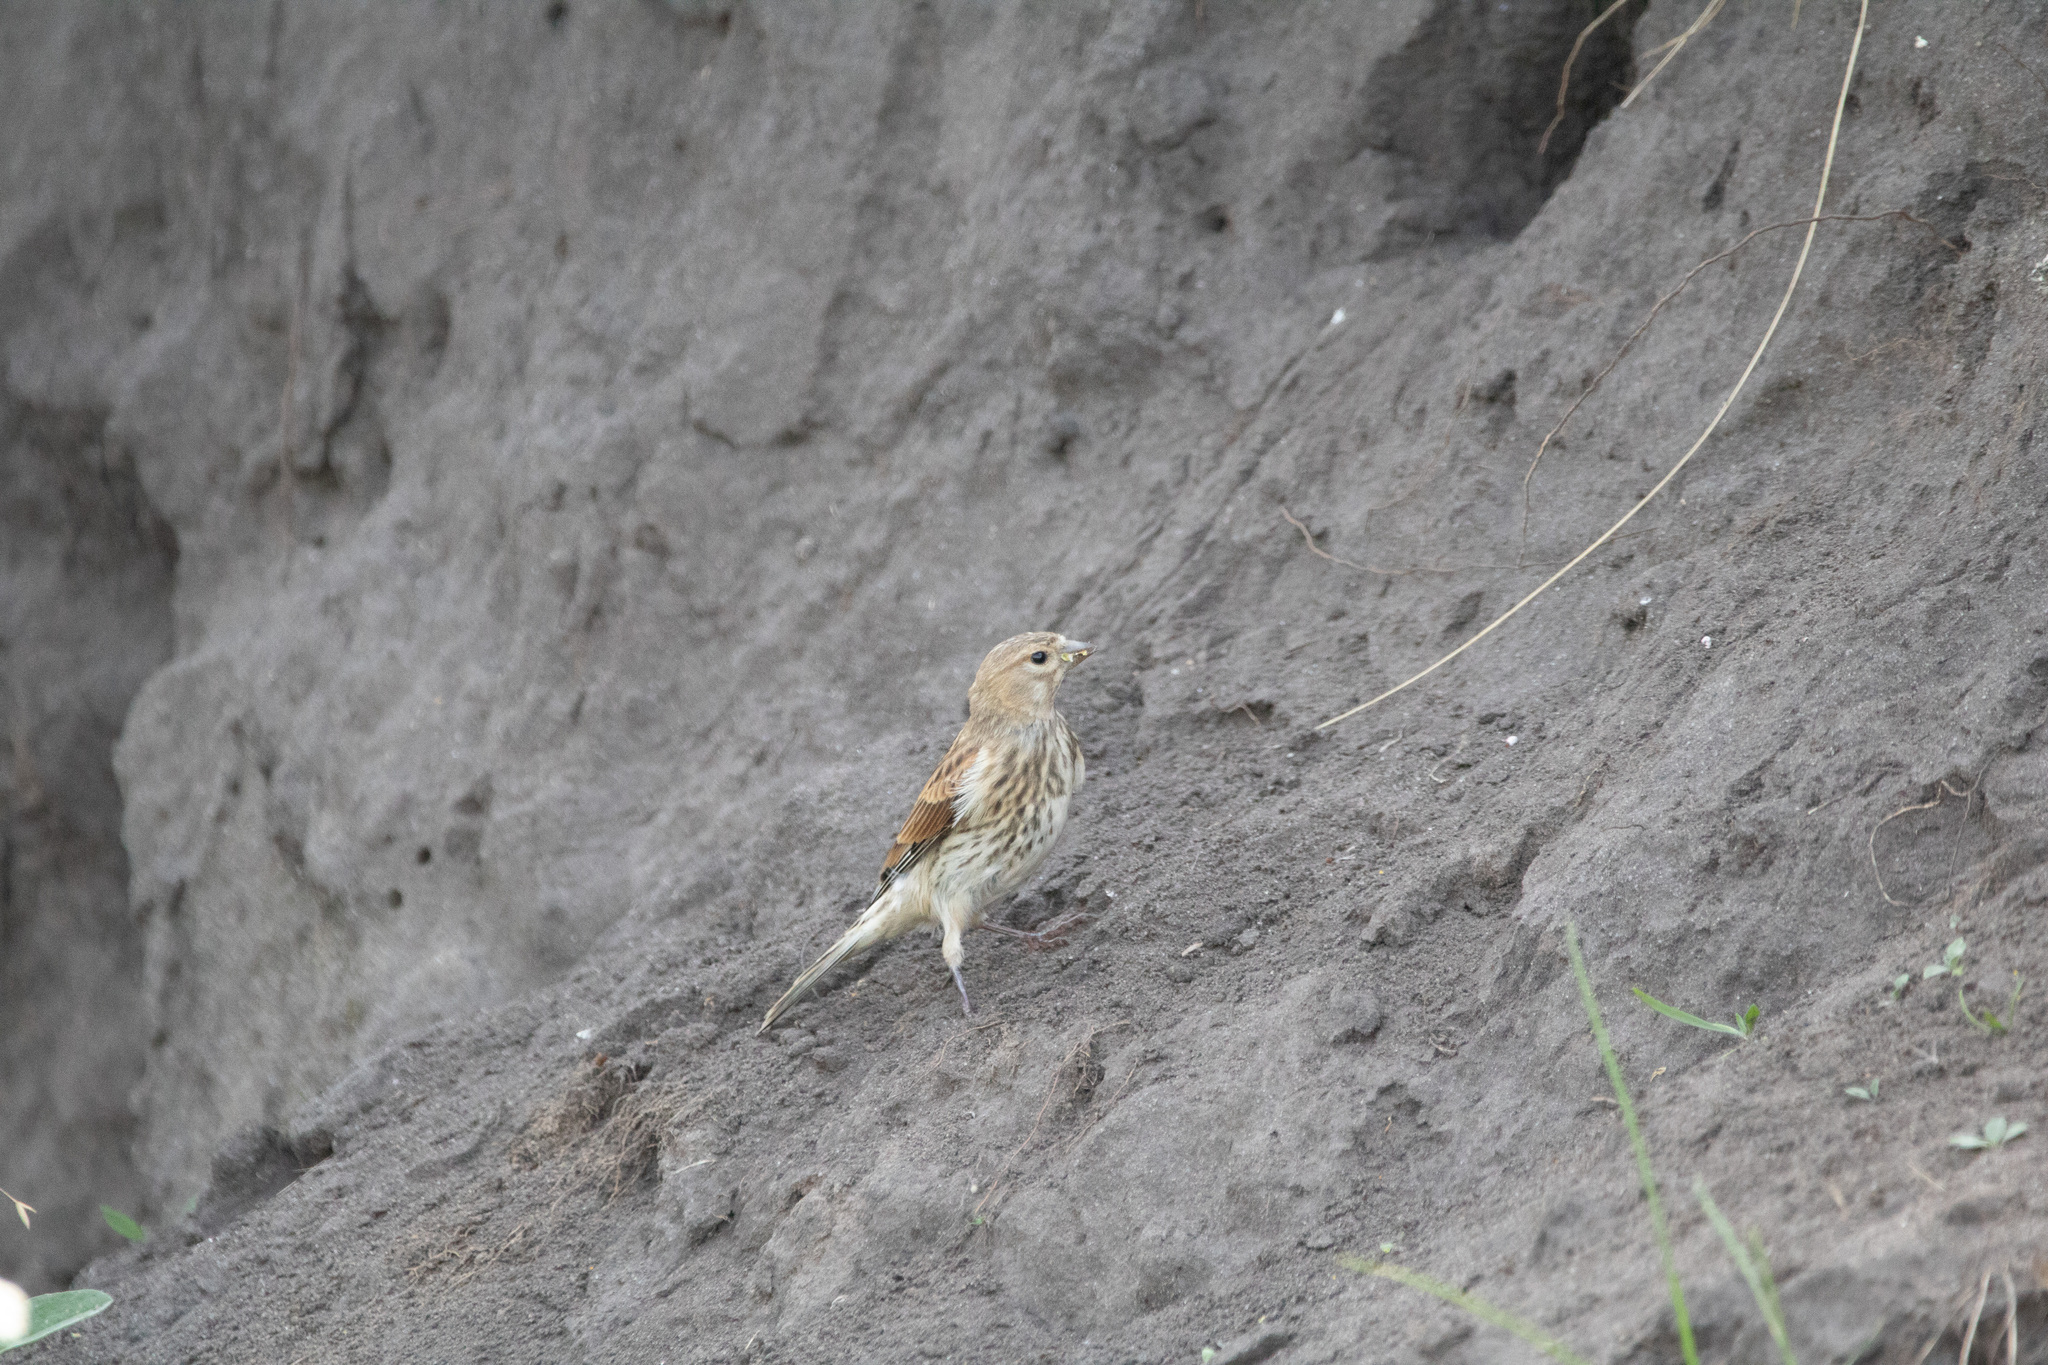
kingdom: Animalia
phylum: Chordata
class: Aves
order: Passeriformes
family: Fringillidae
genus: Linaria
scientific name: Linaria cannabina
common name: Common linnet
